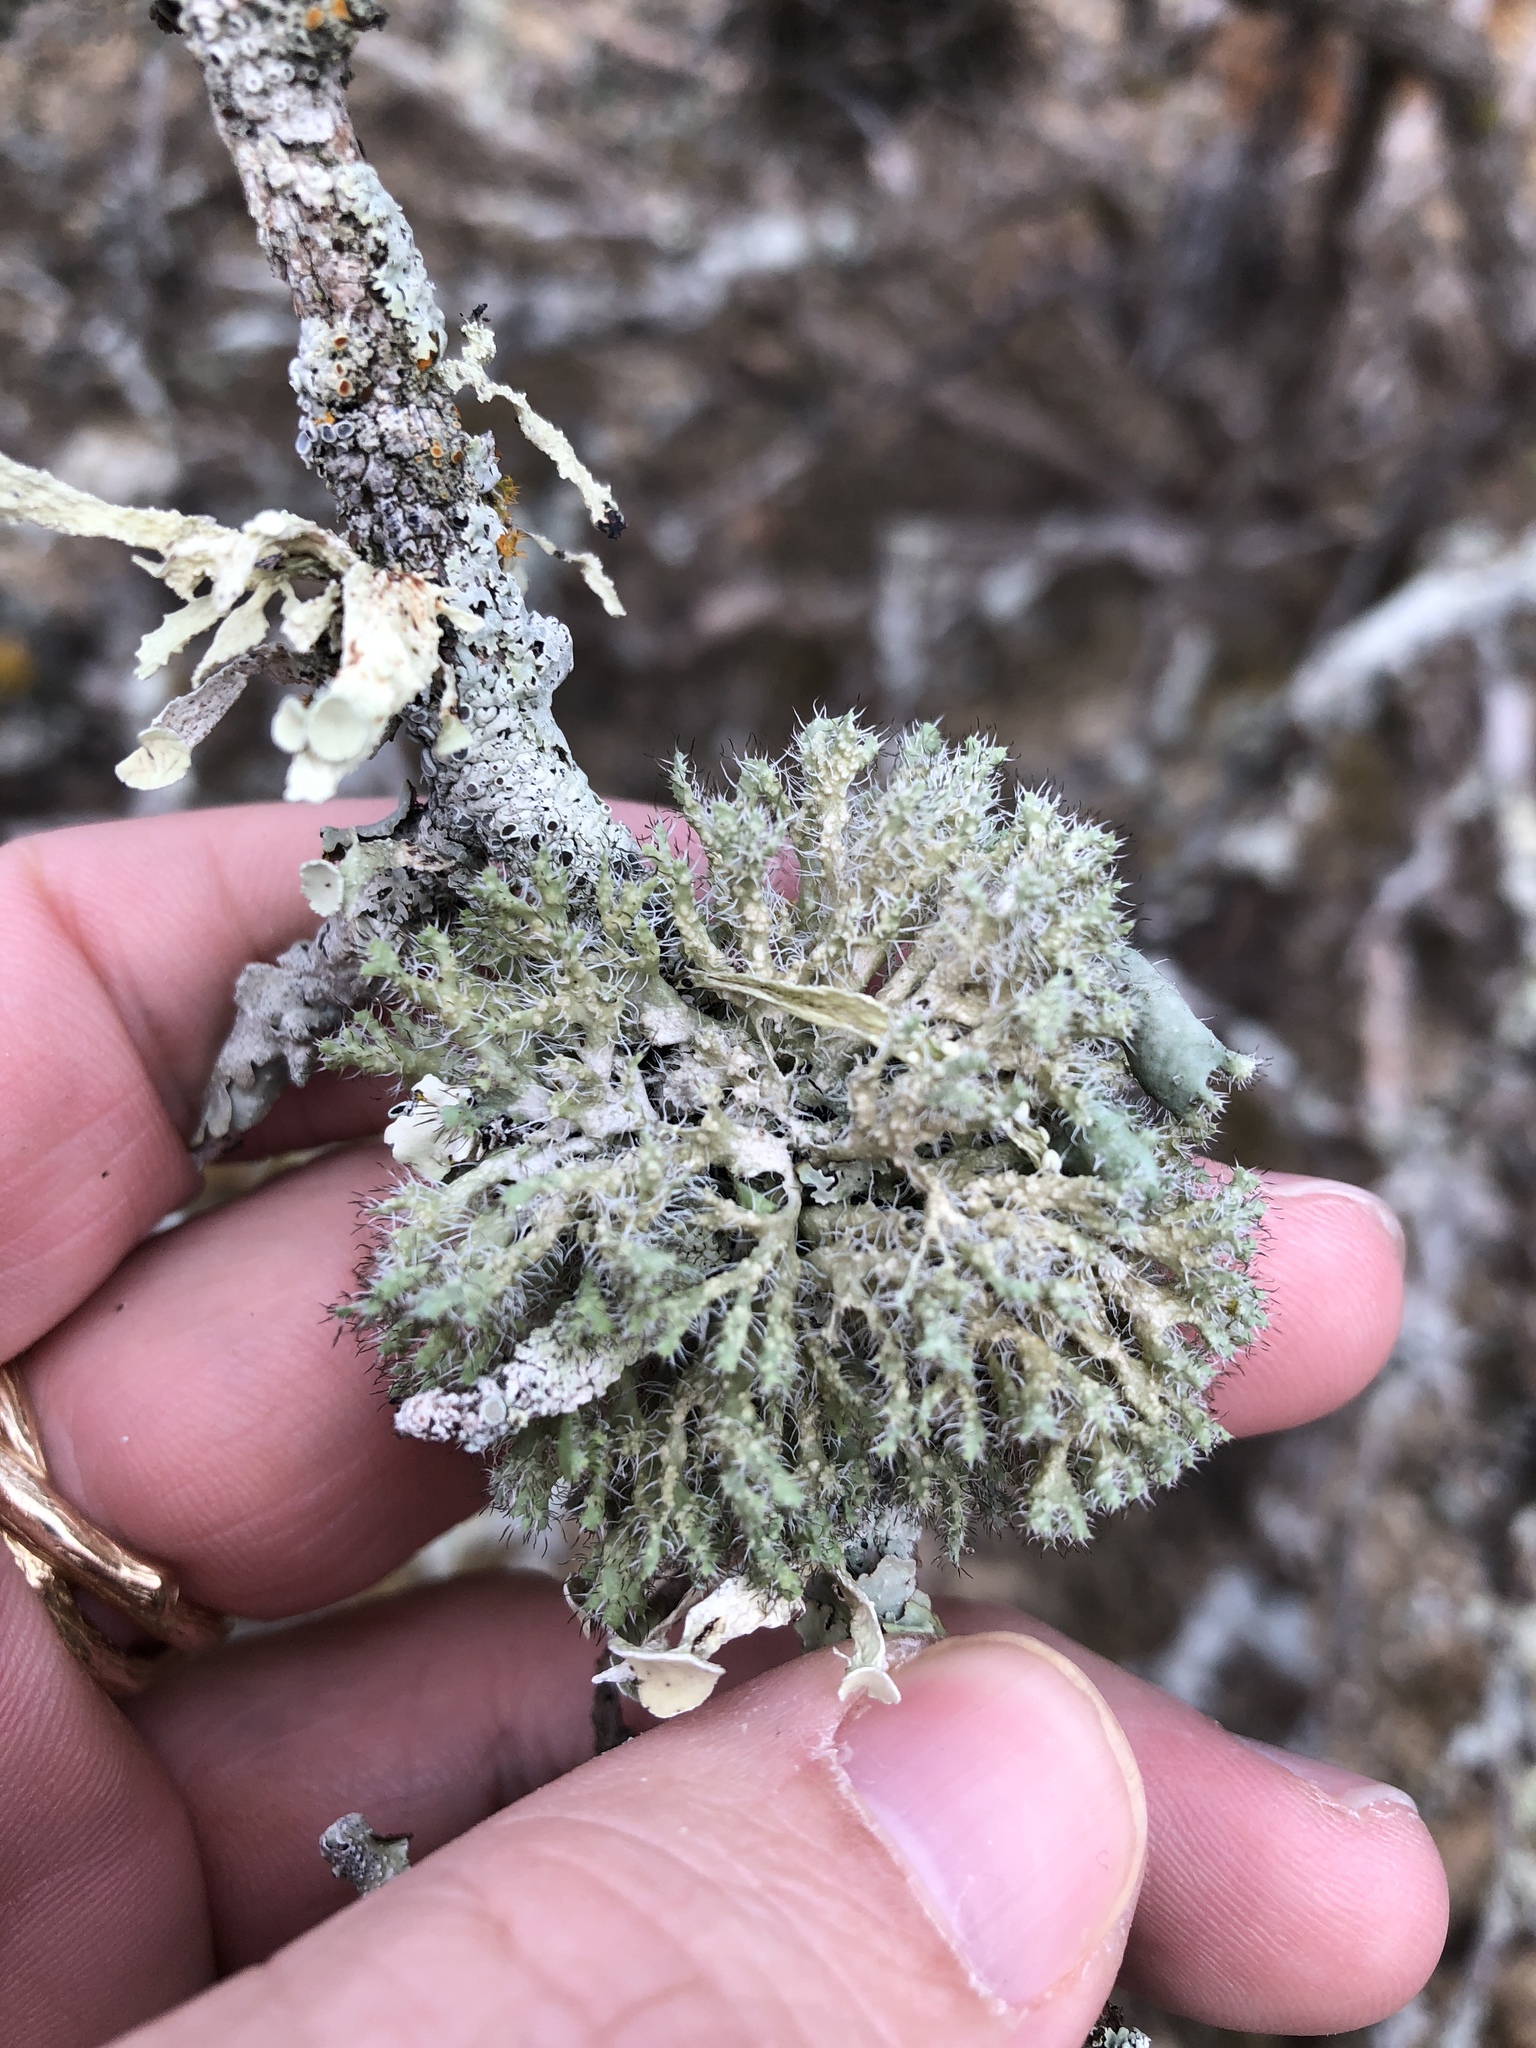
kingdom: Fungi
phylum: Ascomycota
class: Lecanoromycetes
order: Lecanorales
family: Parmeliaceae
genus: Usnea
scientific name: Usnea strigosa
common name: Bushy beard lichen
